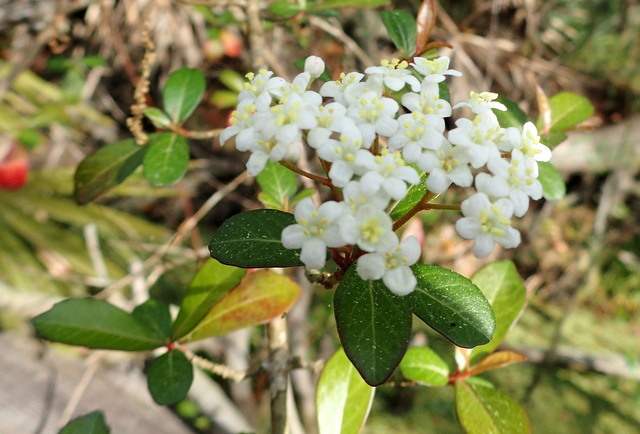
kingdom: Plantae
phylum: Tracheophyta
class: Magnoliopsida
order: Dipsacales
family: Viburnaceae
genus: Viburnum
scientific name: Viburnum obovatum
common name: Walter's viburnum
